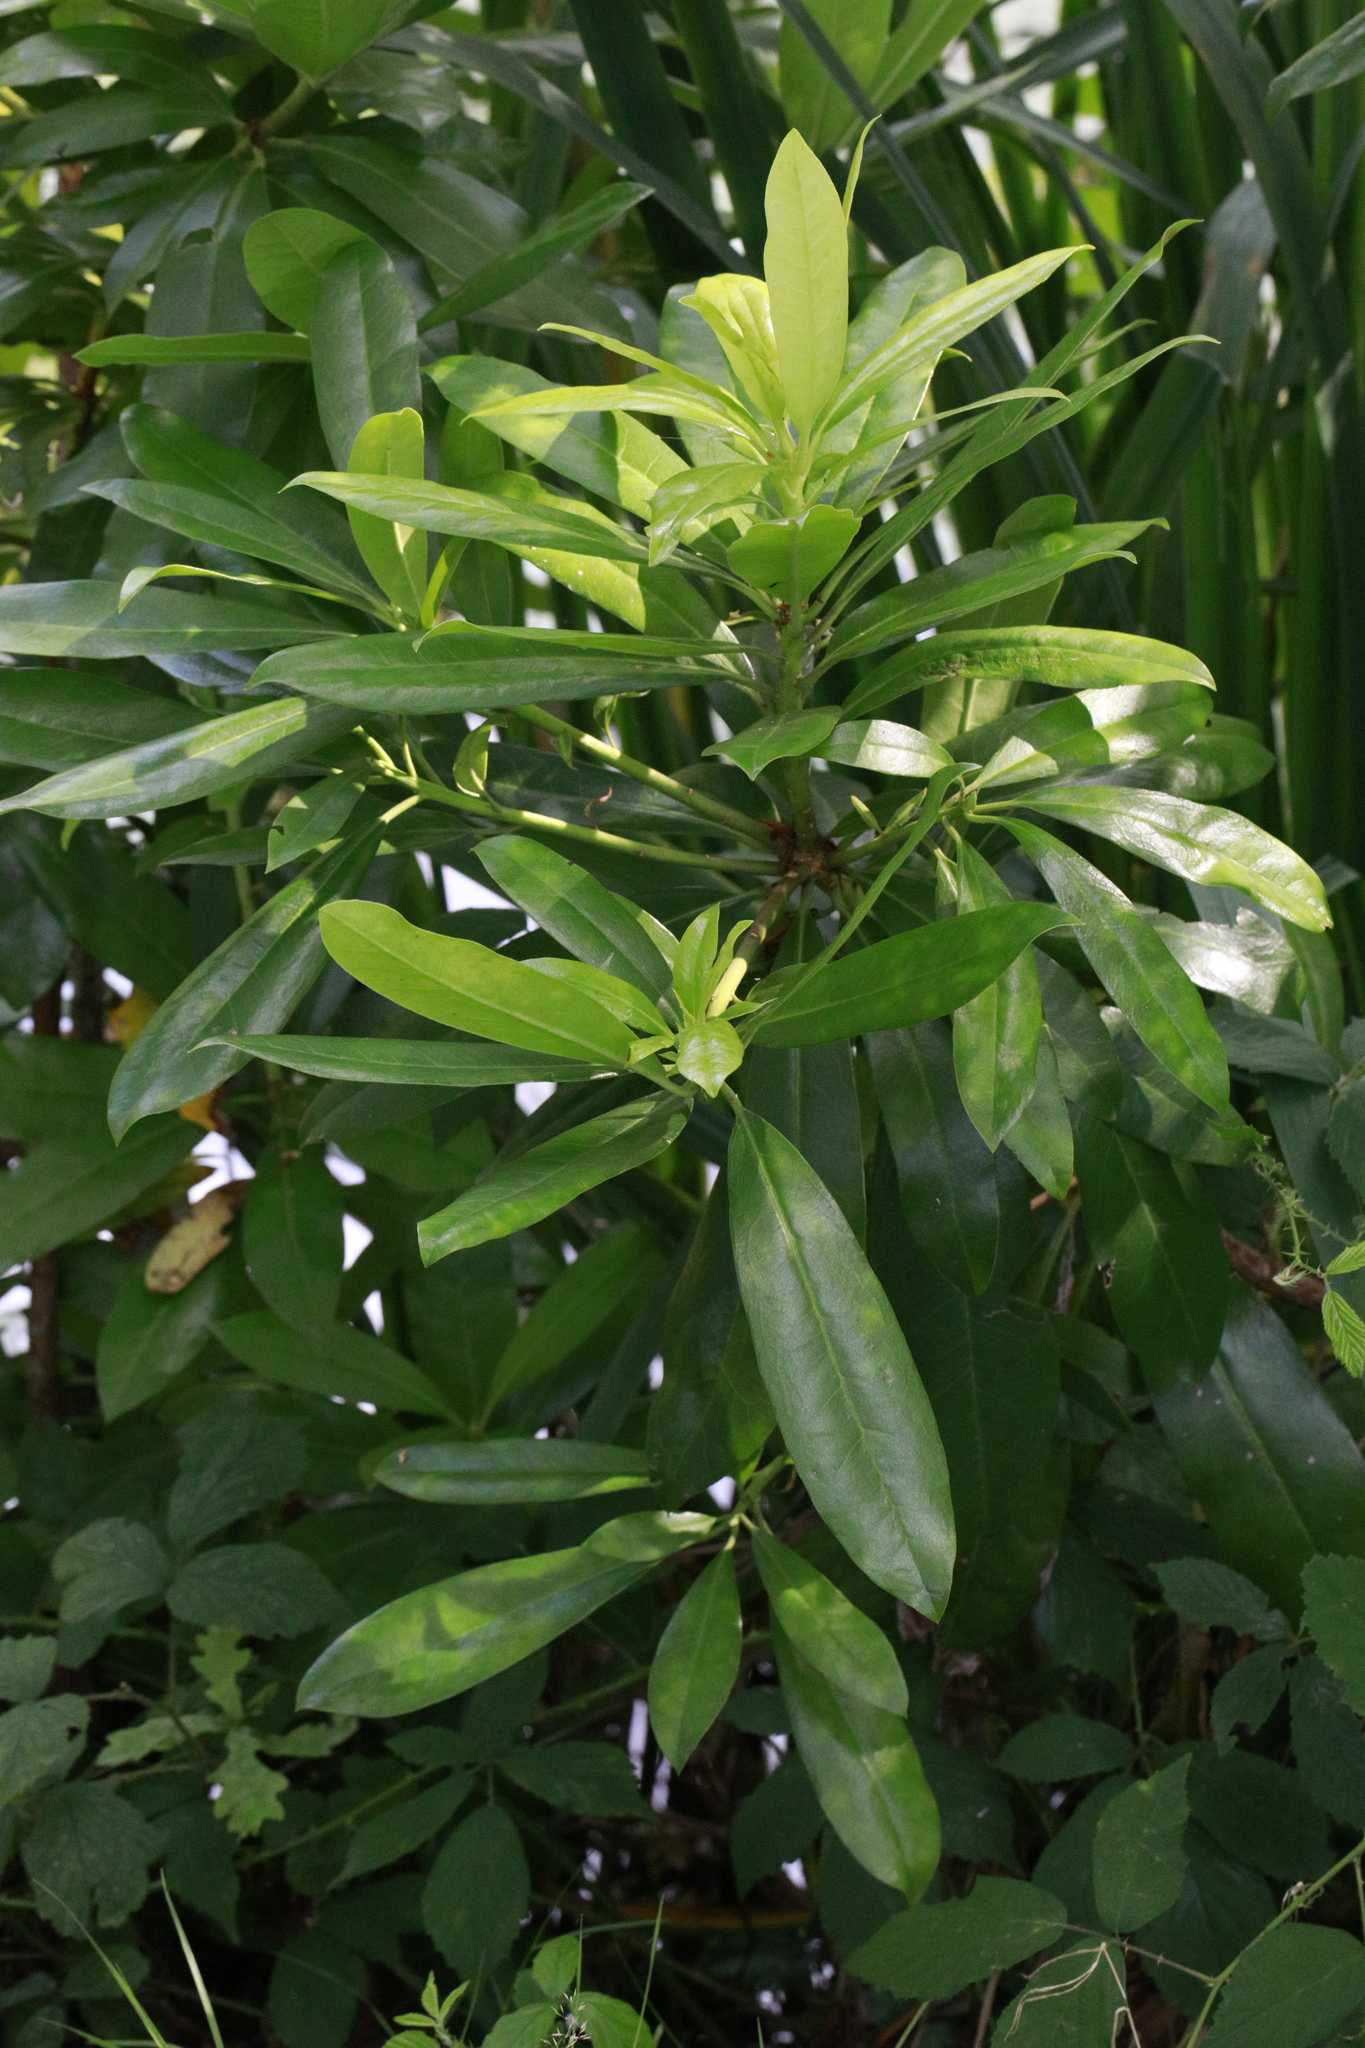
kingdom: Plantae
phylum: Tracheophyta
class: Magnoliopsida
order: Ericales
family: Ericaceae
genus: Rhododendron
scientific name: Rhododendron ponticum
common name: Rhododendron
